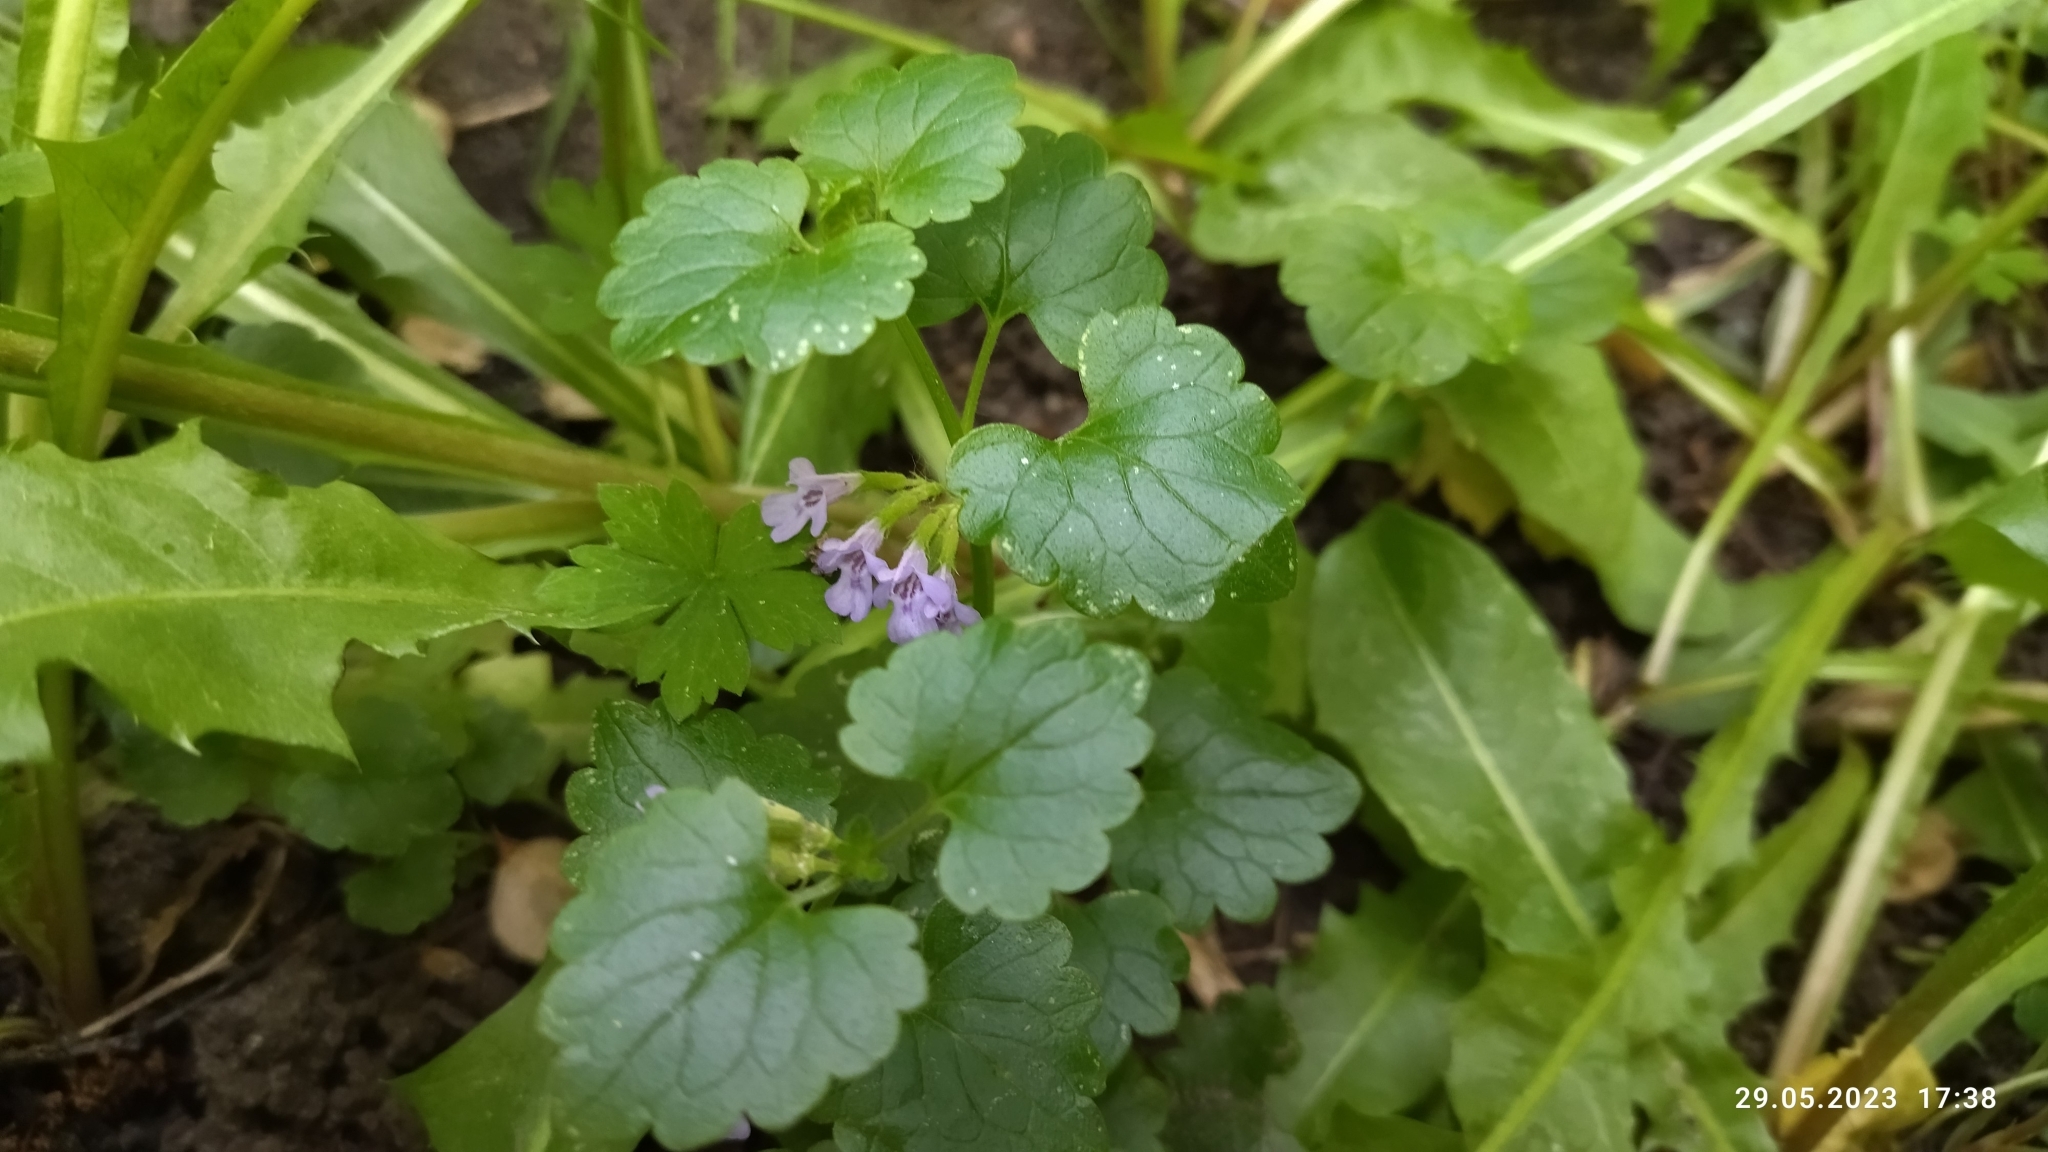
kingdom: Plantae
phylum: Tracheophyta
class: Magnoliopsida
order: Lamiales
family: Lamiaceae
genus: Glechoma
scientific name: Glechoma hederacea
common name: Ground ivy
